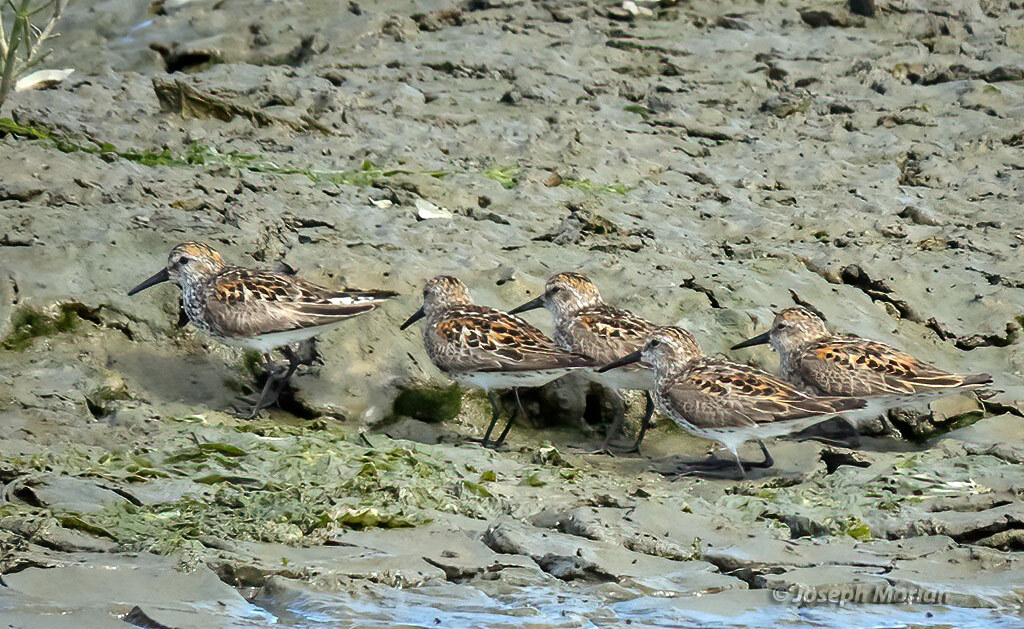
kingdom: Animalia
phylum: Chordata
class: Aves
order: Charadriiformes
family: Scolopacidae
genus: Calidris
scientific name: Calidris mauri
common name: Western sandpiper
